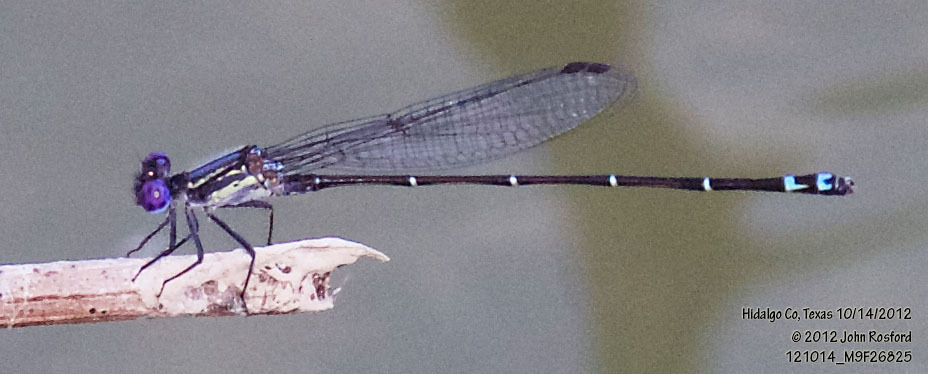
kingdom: Animalia
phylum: Arthropoda
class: Insecta
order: Odonata
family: Coenagrionidae
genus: Argia
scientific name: Argia translata
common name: Dusky dancer
